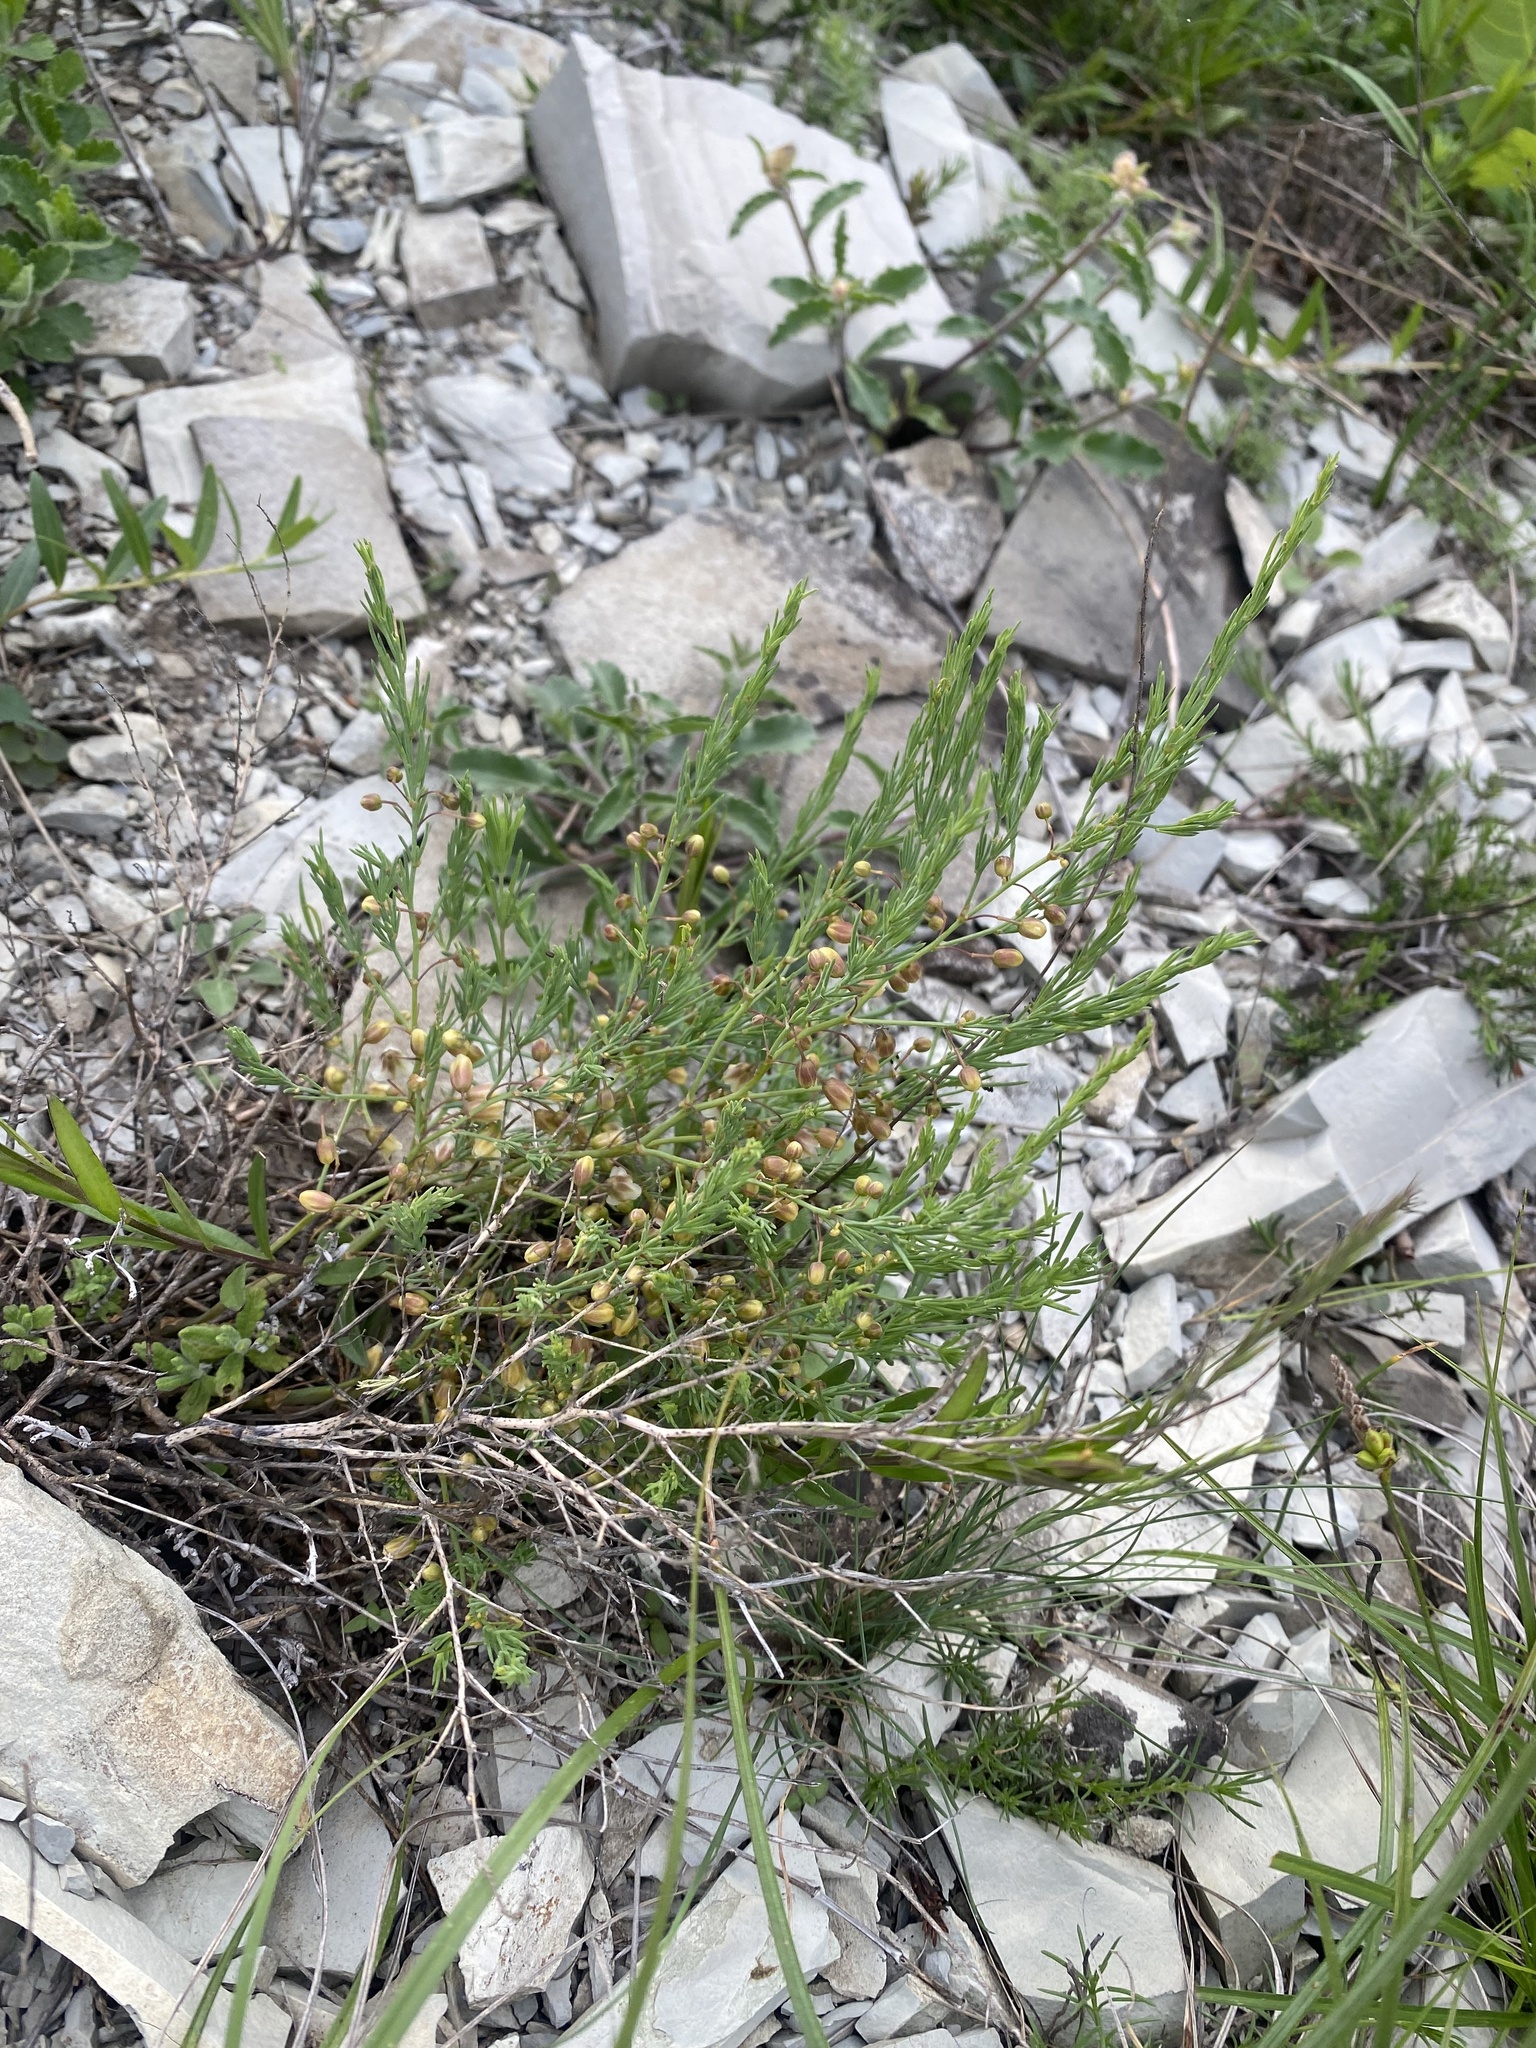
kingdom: Plantae
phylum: Tracheophyta
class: Magnoliopsida
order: Malvales
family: Cistaceae
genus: Fumana
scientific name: Fumana procumbens
